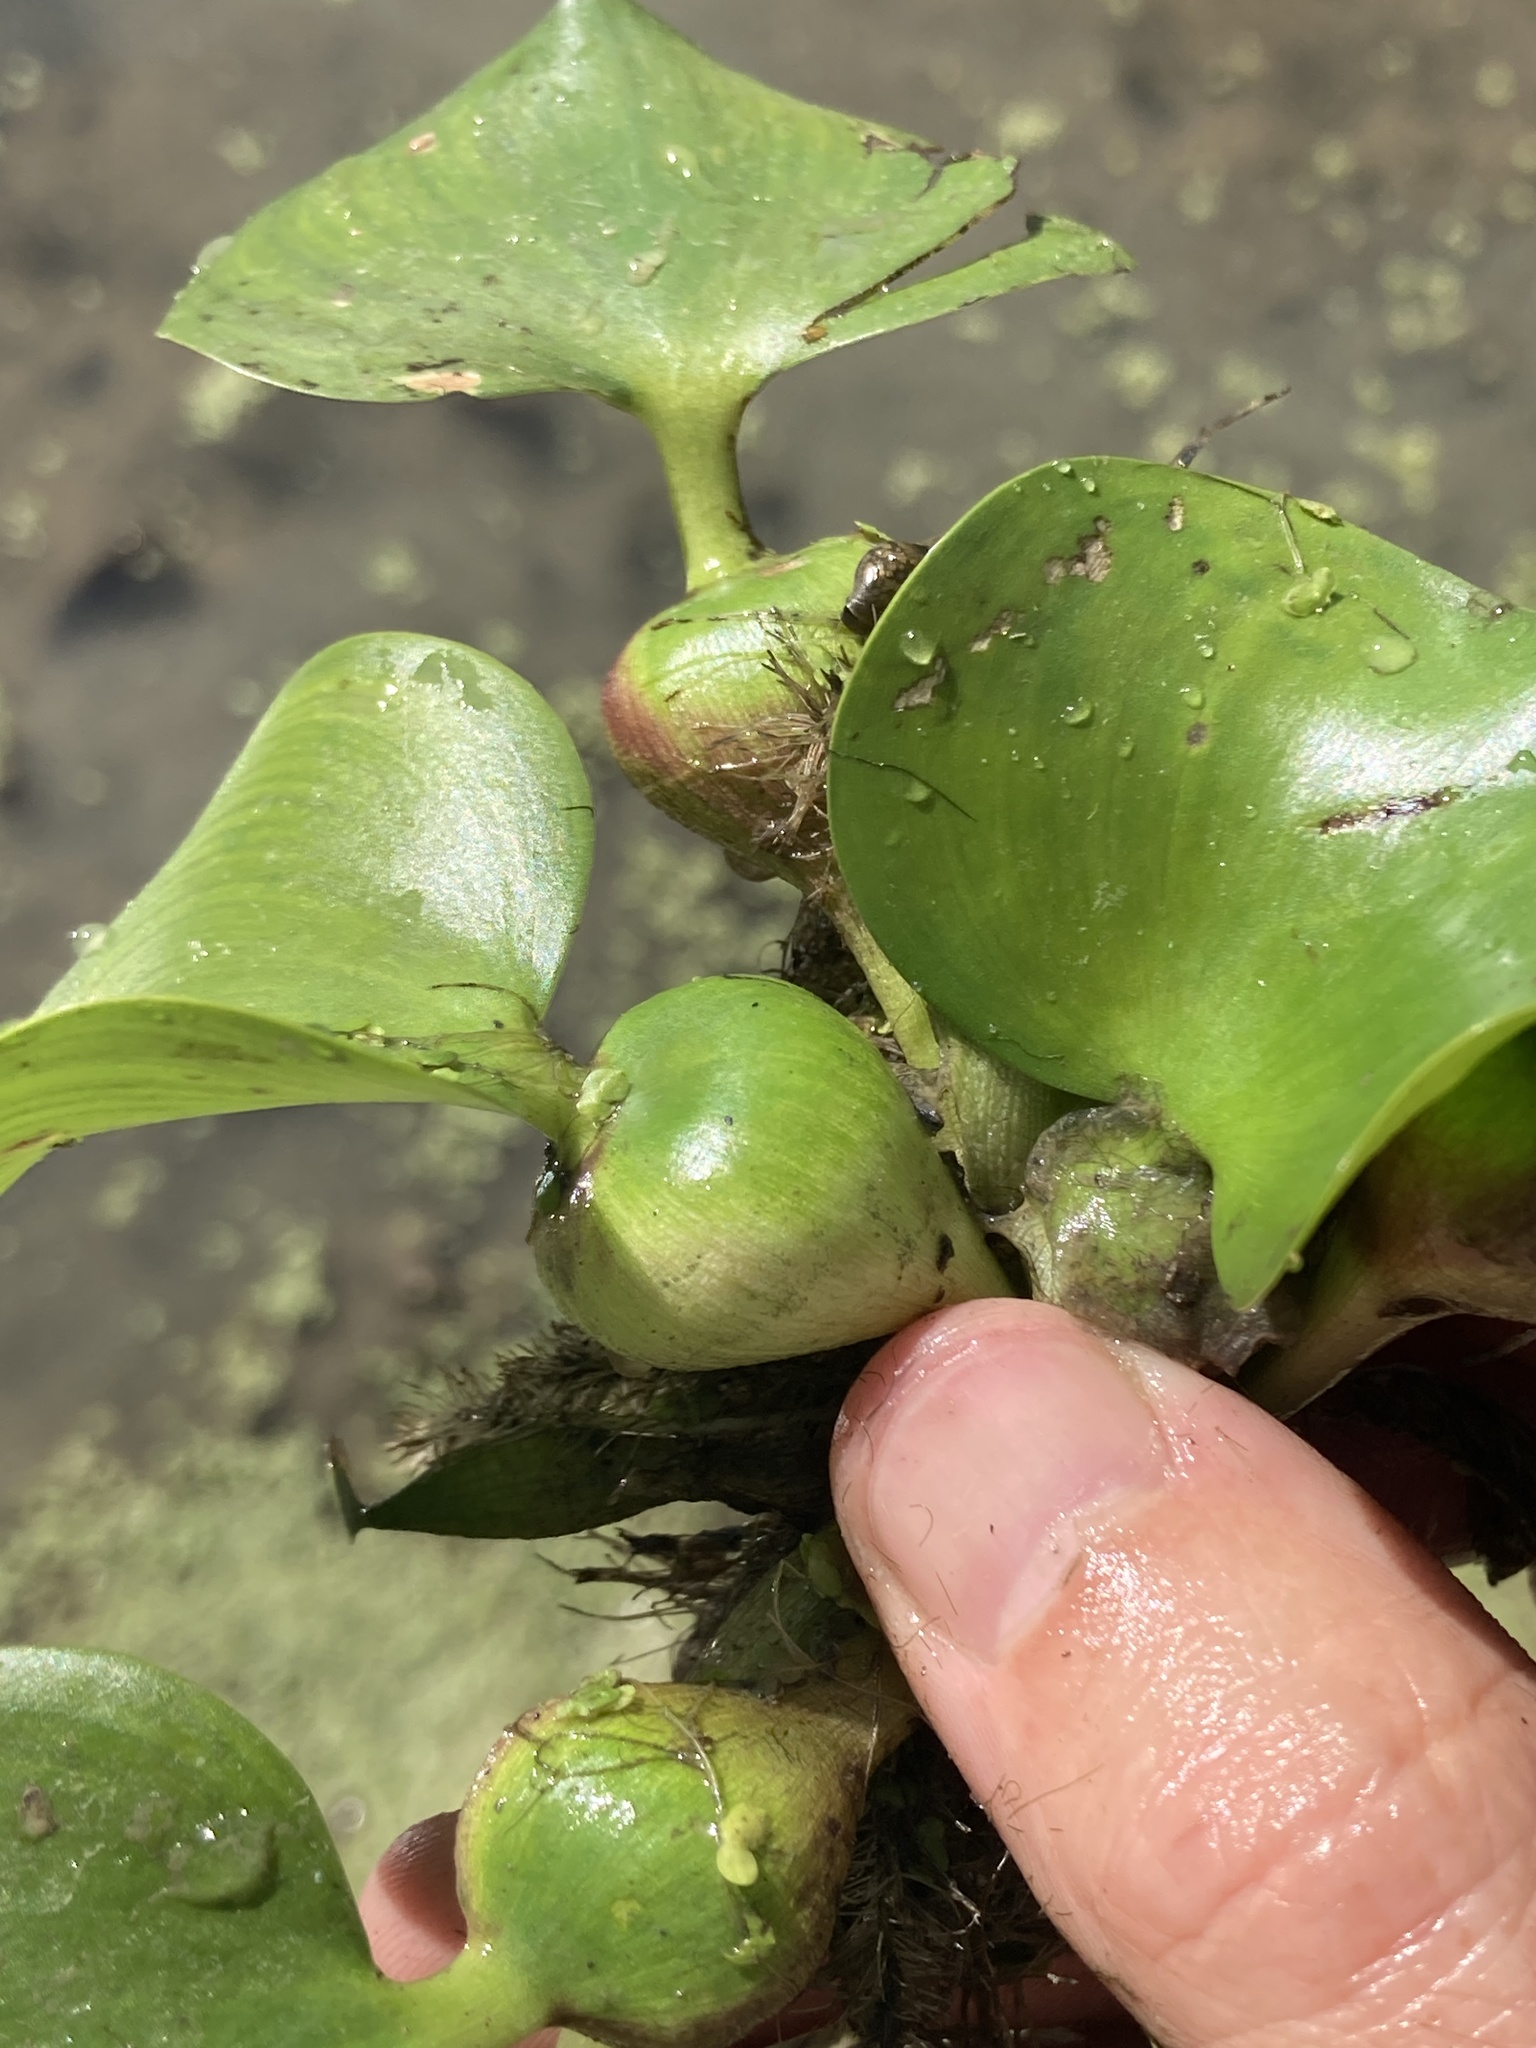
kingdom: Plantae
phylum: Tracheophyta
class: Liliopsida
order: Commelinales
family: Pontederiaceae
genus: Pontederia
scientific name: Pontederia crassipes
